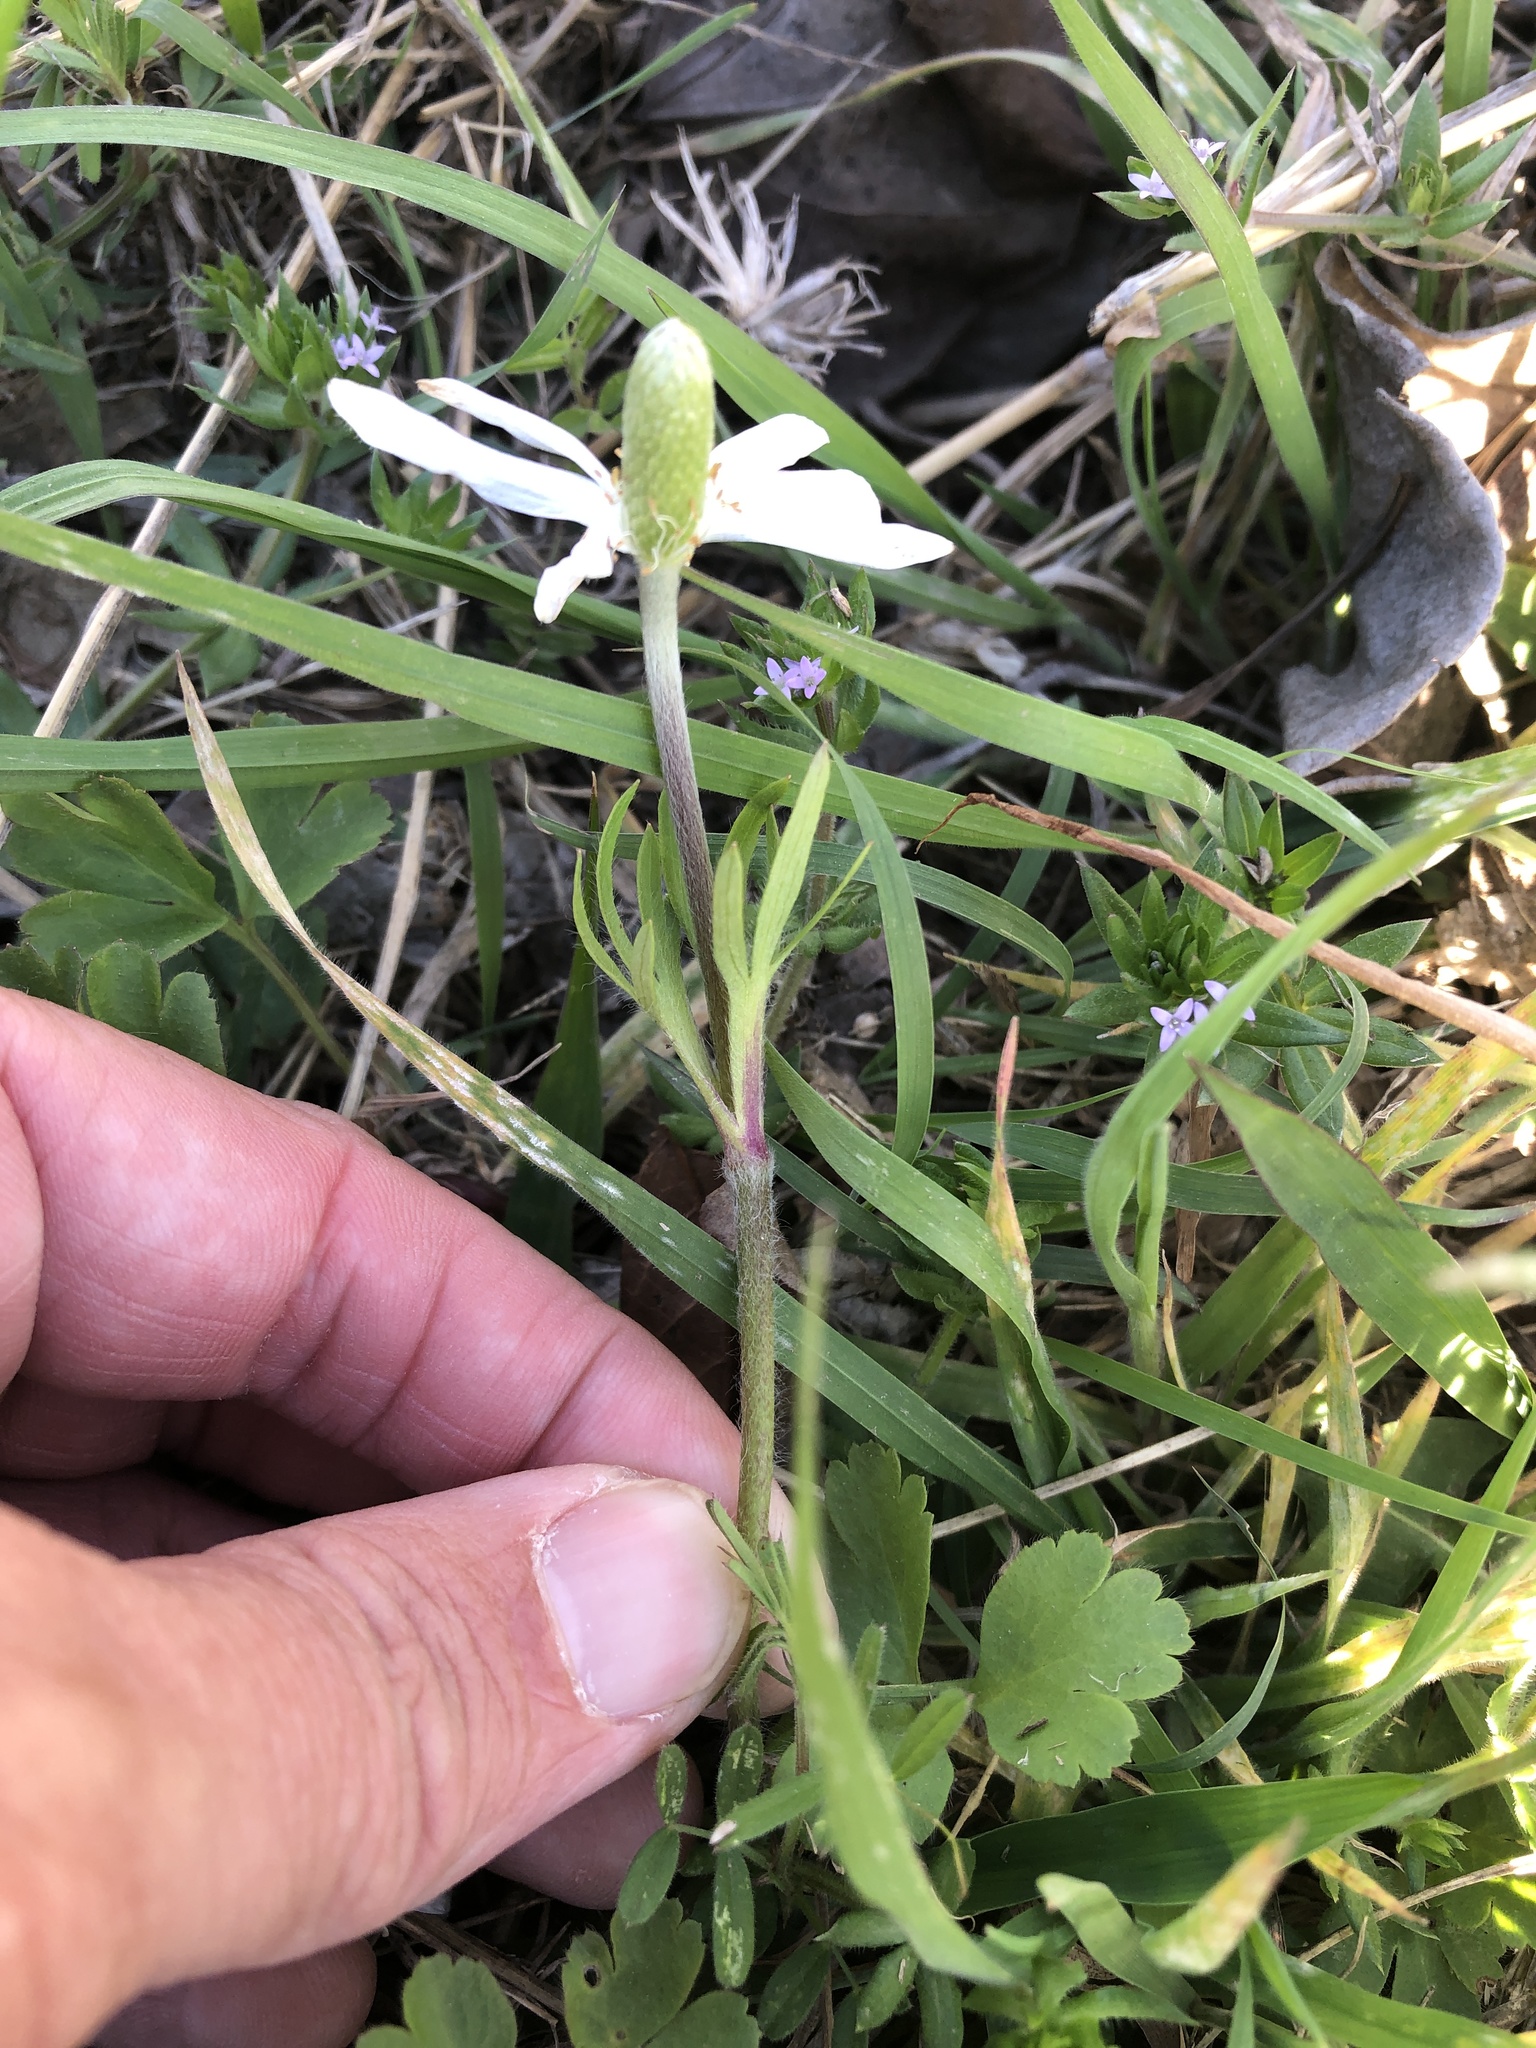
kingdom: Plantae
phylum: Tracheophyta
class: Magnoliopsida
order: Ranunculales
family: Ranunculaceae
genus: Anemone
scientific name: Anemone berlandieri
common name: Ten-petal anemone
